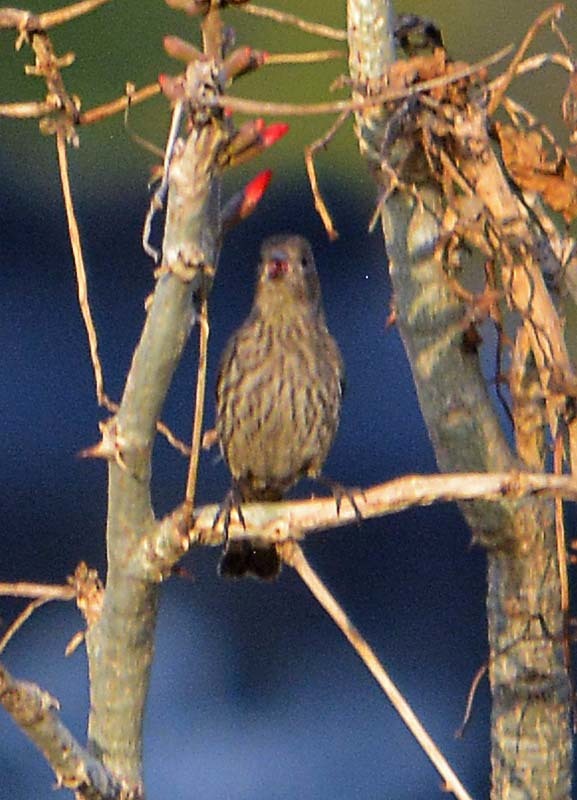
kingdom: Animalia
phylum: Chordata
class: Aves
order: Passeriformes
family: Fringillidae
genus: Haemorhous
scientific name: Haemorhous mexicanus
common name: House finch
